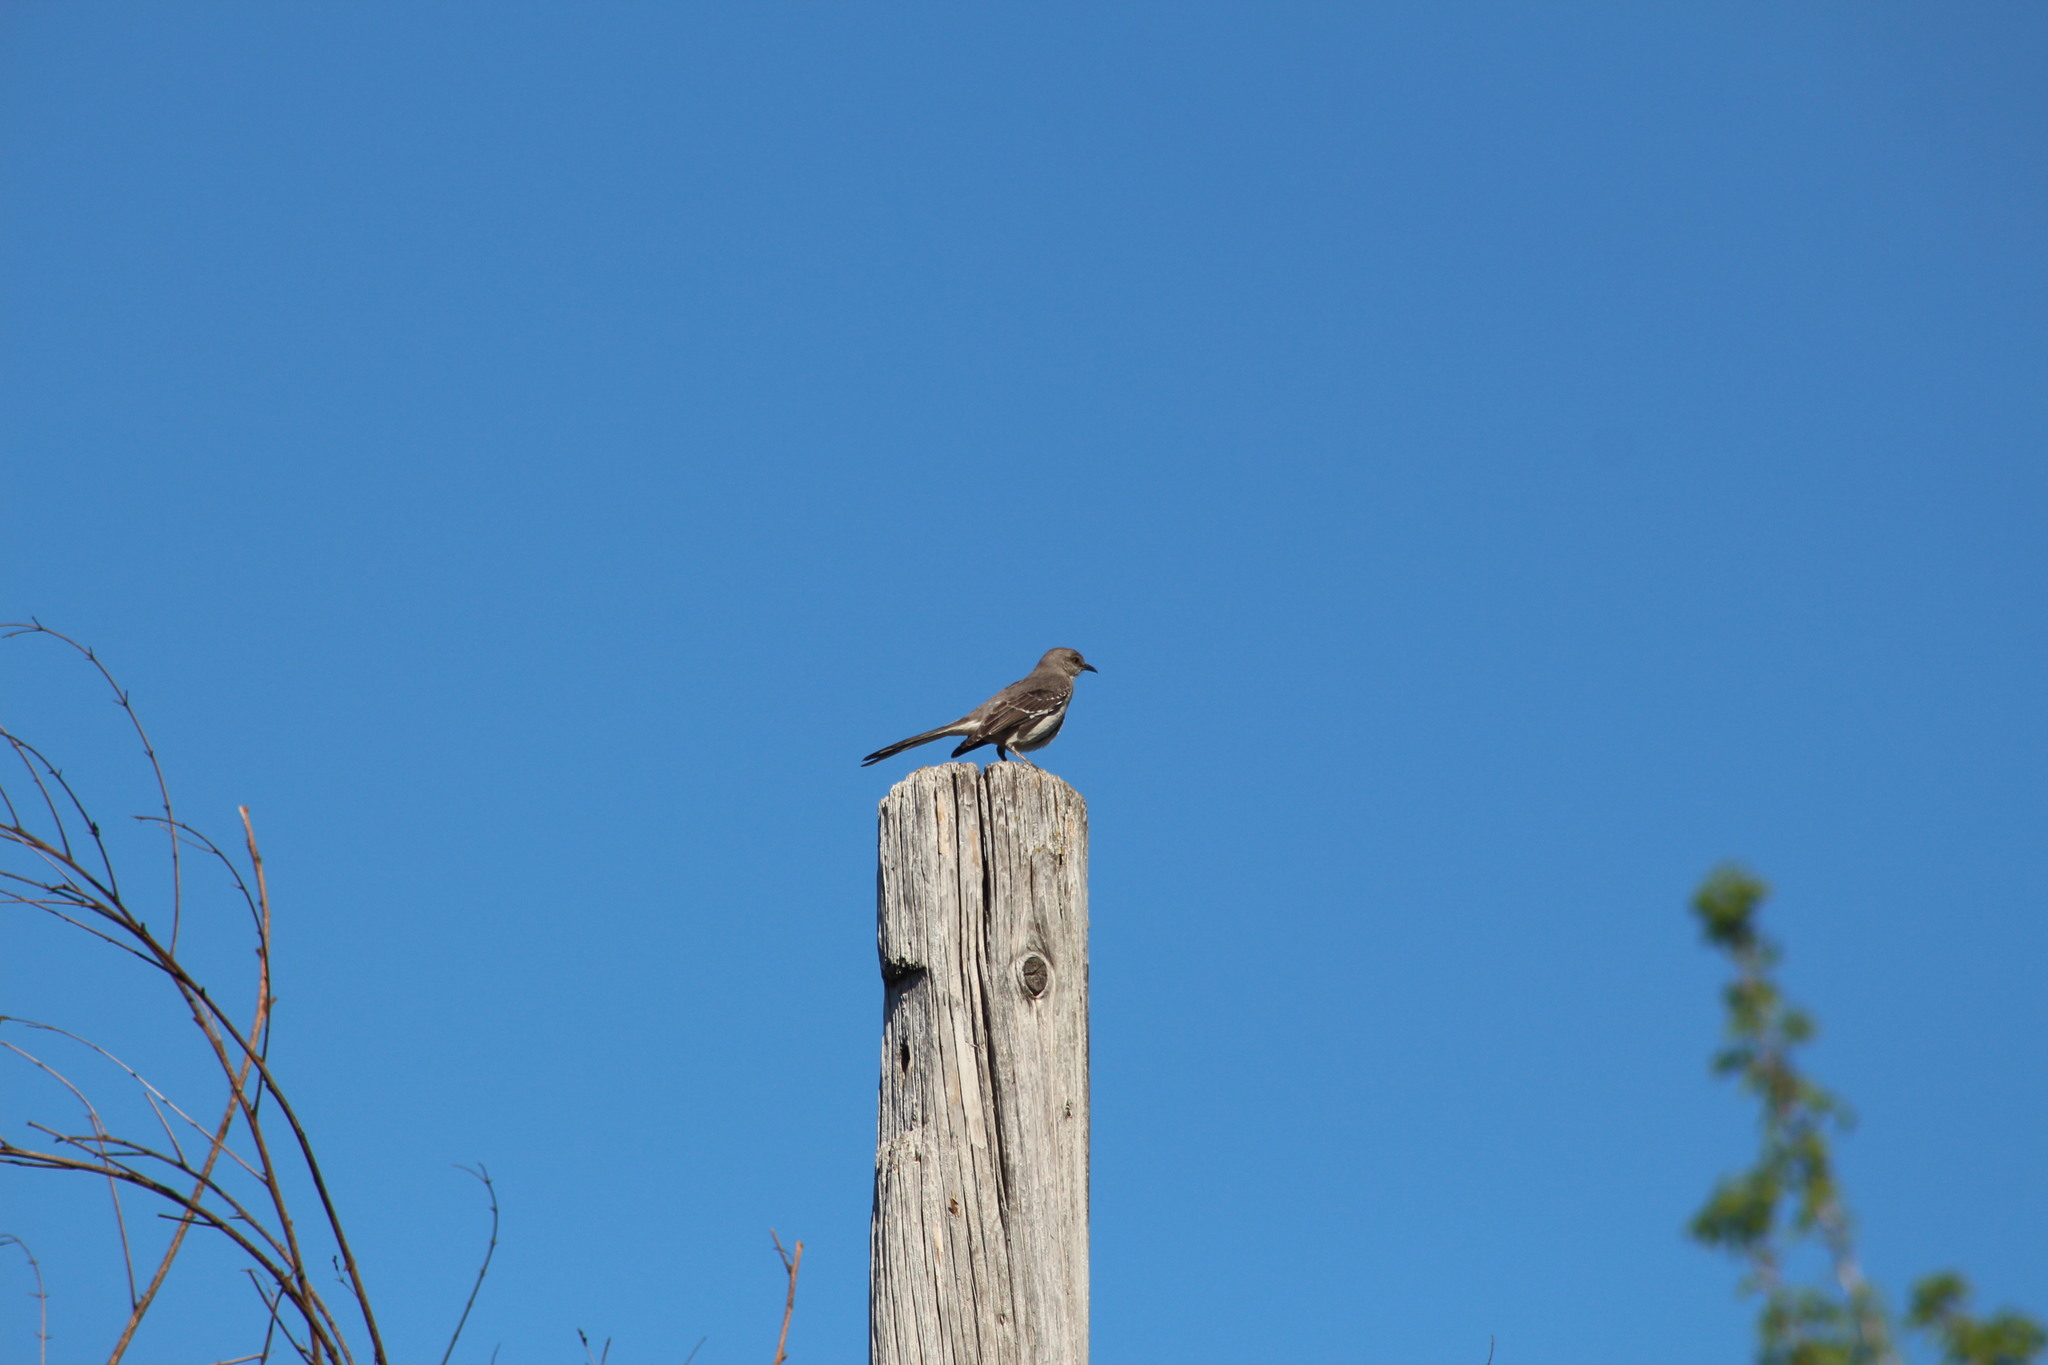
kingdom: Animalia
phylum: Chordata
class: Aves
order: Passeriformes
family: Mimidae
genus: Mimus
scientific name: Mimus polyglottos
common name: Northern mockingbird
